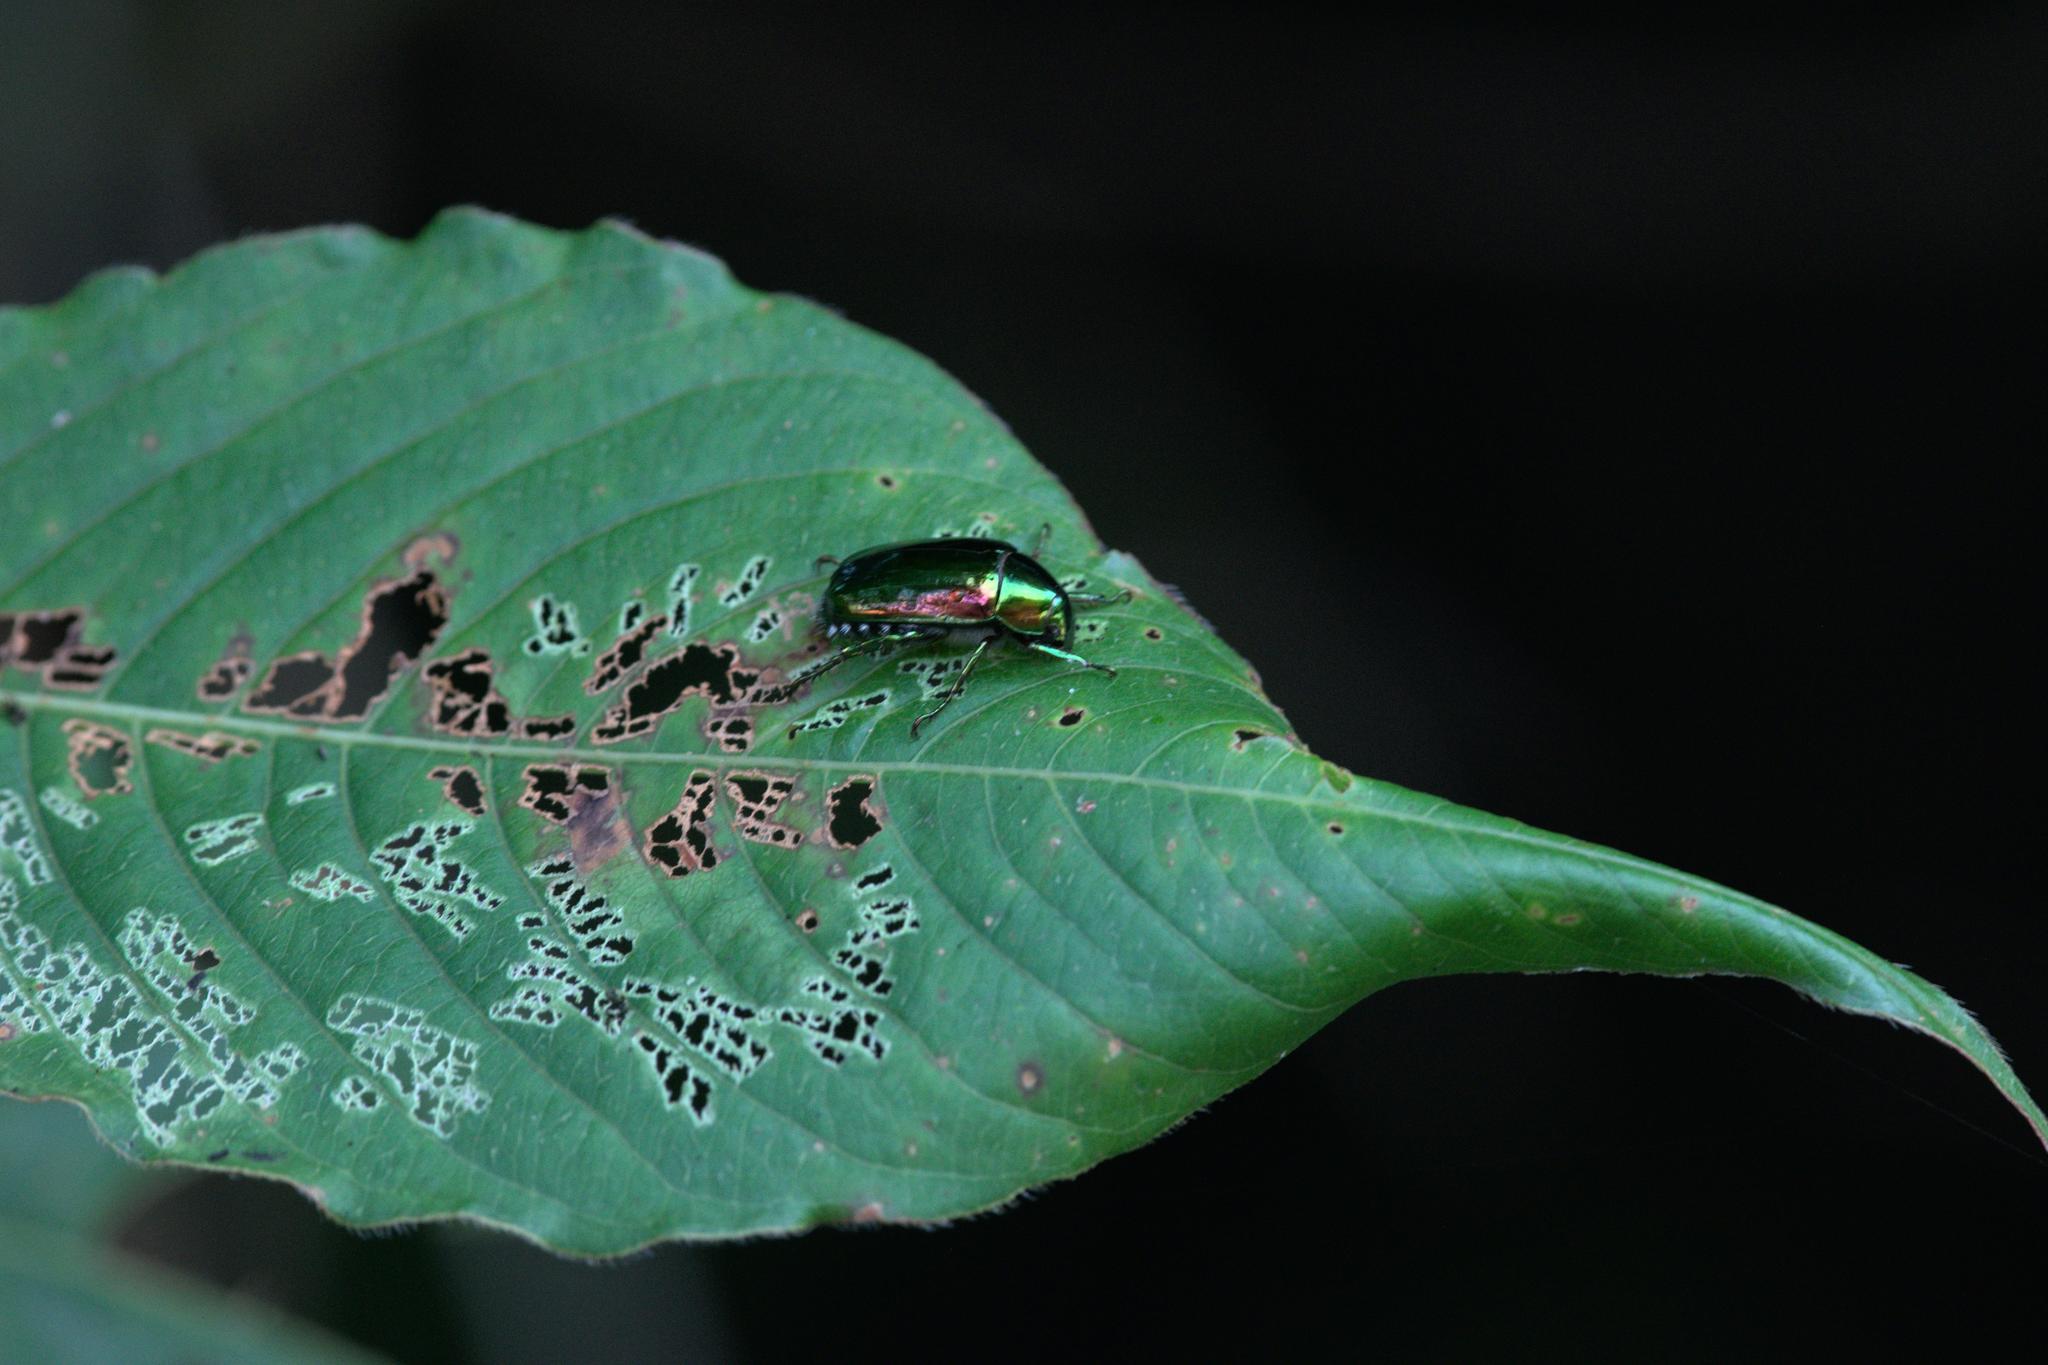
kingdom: Animalia
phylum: Arthropoda
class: Insecta
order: Coleoptera
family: Scarabaeidae
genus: Callistethus
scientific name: Callistethus auronitens
